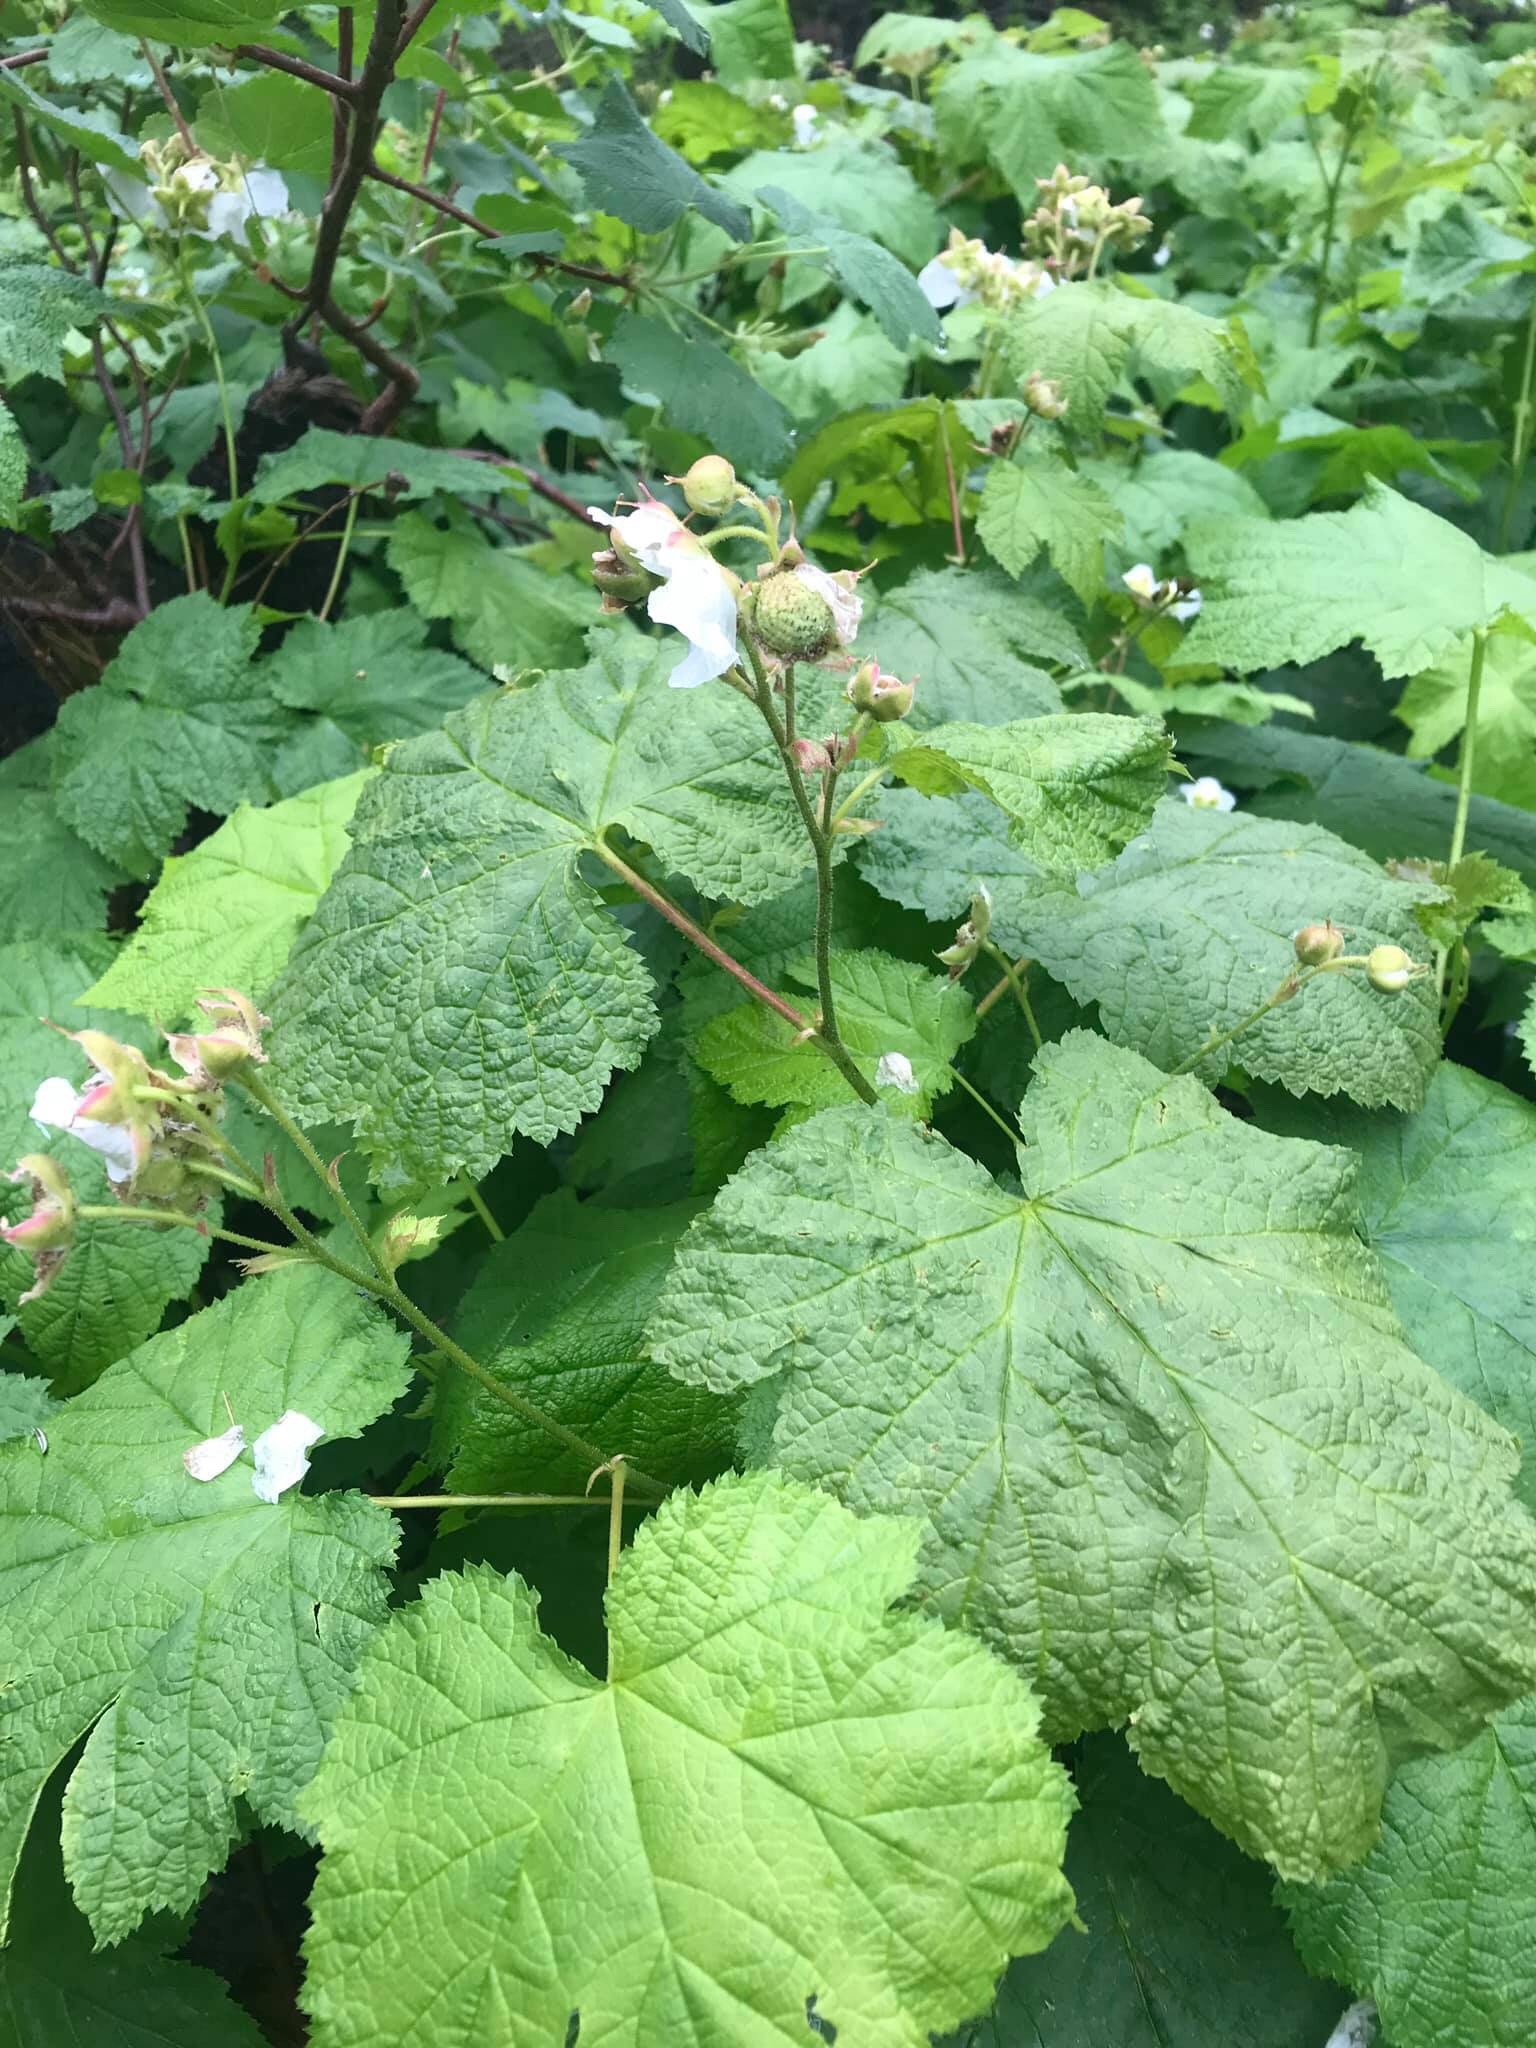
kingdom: Plantae
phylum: Tracheophyta
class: Magnoliopsida
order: Rosales
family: Rosaceae
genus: Rubus
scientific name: Rubus parviflorus
